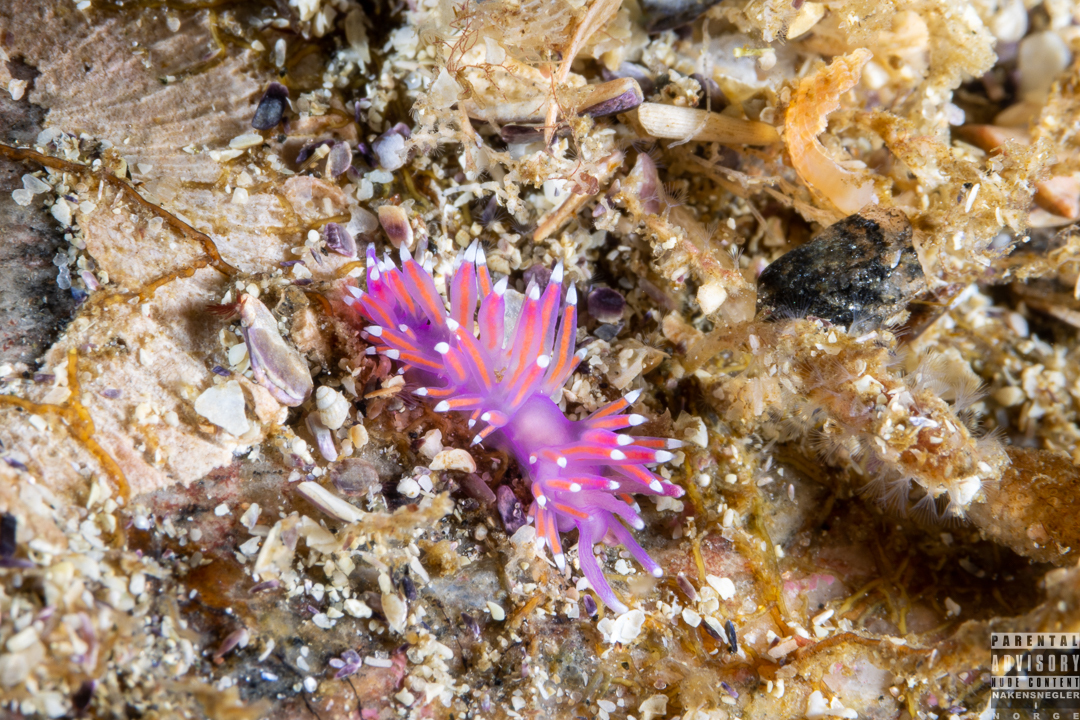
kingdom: Animalia
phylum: Mollusca
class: Gastropoda
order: Nudibranchia
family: Flabellinidae
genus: Edmundsella
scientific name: Edmundsella pedata
